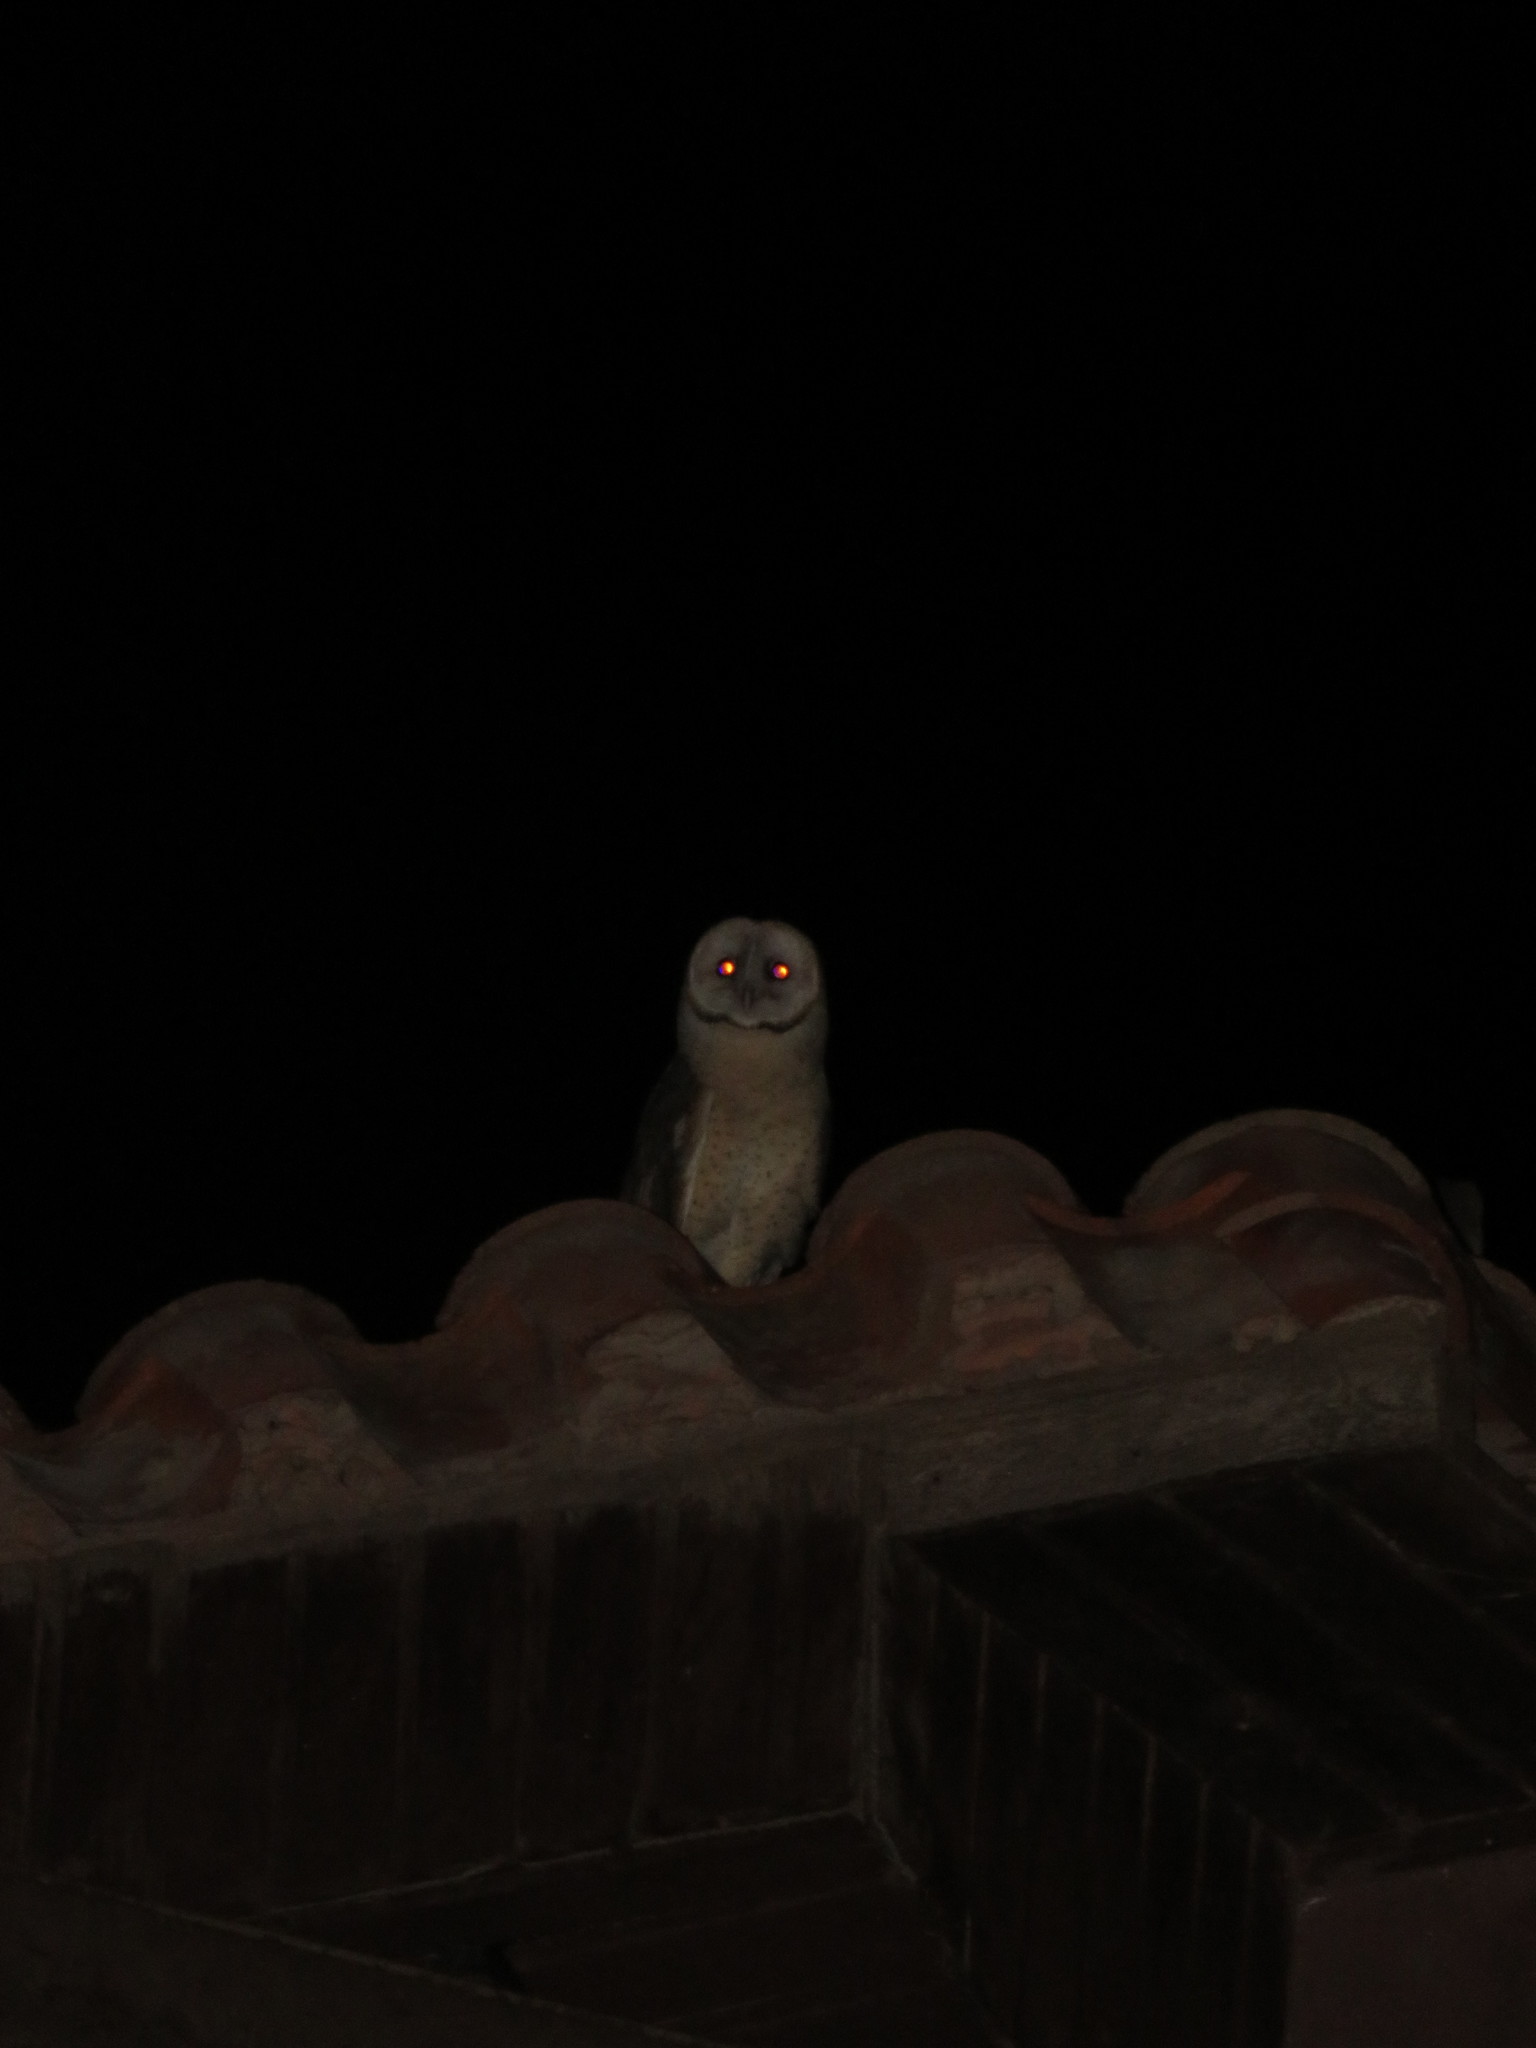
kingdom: Animalia
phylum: Chordata
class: Aves
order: Strigiformes
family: Tytonidae
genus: Tyto
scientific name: Tyto alba
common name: Barn owl
